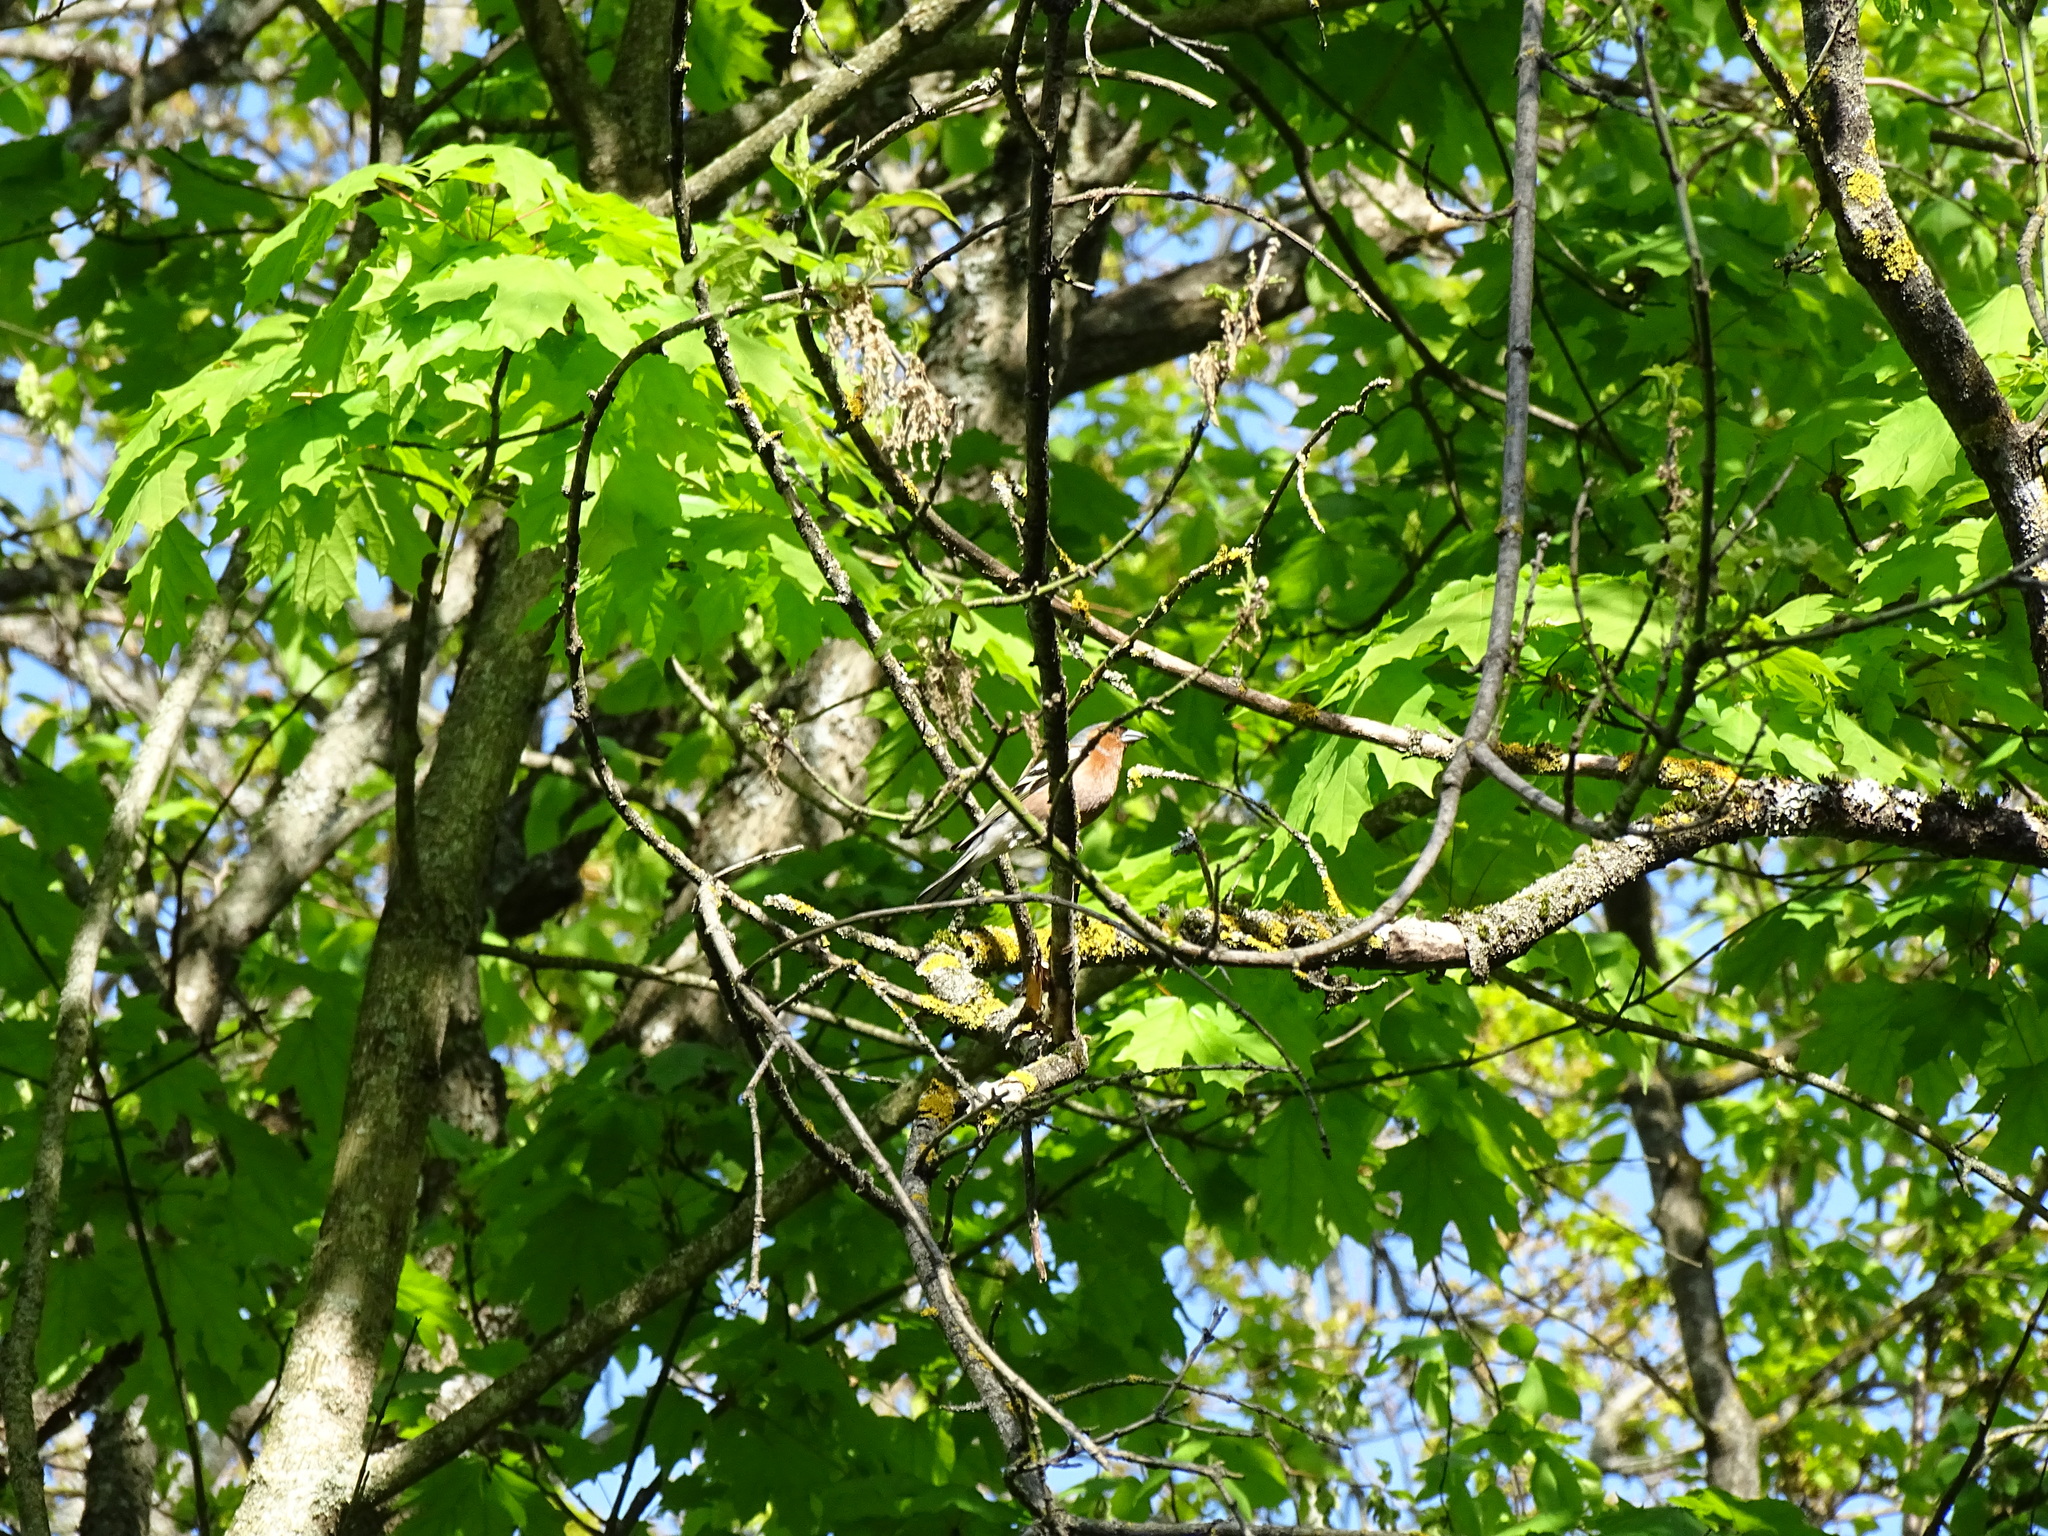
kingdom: Animalia
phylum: Chordata
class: Aves
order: Passeriformes
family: Fringillidae
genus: Fringilla
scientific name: Fringilla coelebs
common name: Common chaffinch
